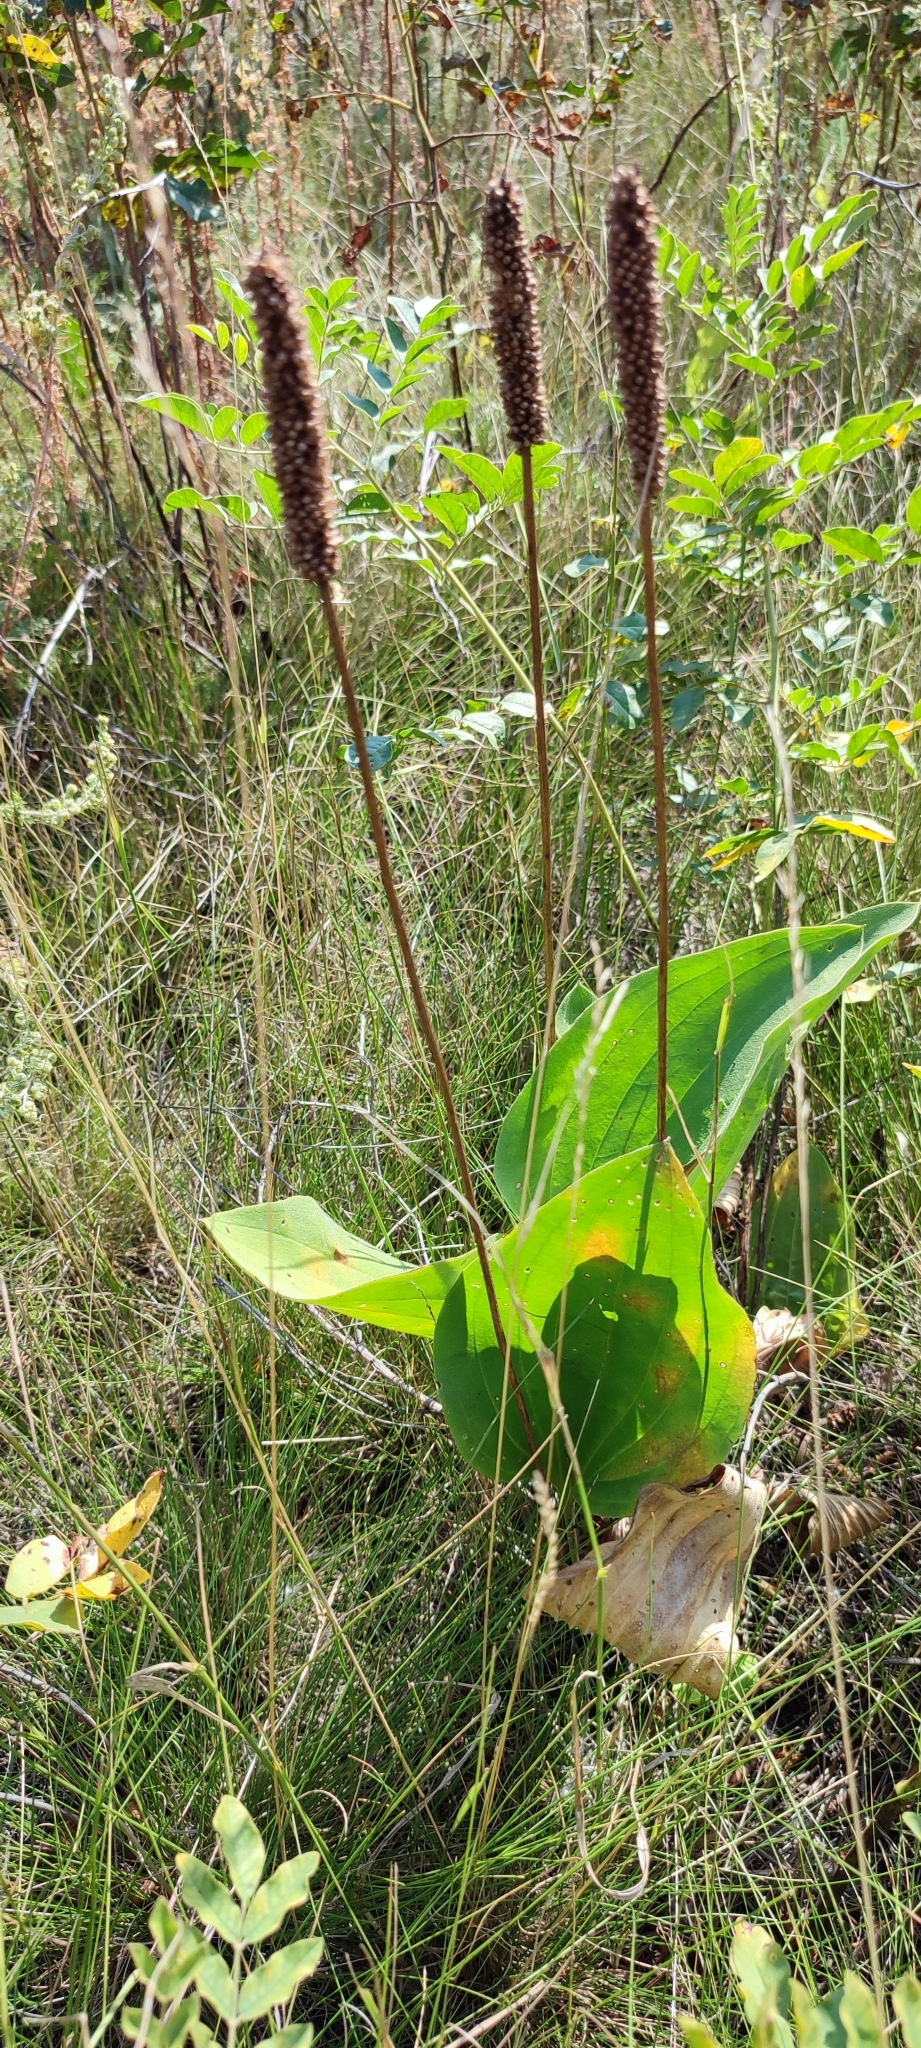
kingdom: Plantae
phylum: Tracheophyta
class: Magnoliopsida
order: Lamiales
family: Plantaginaceae
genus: Plantago
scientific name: Plantago maxima
